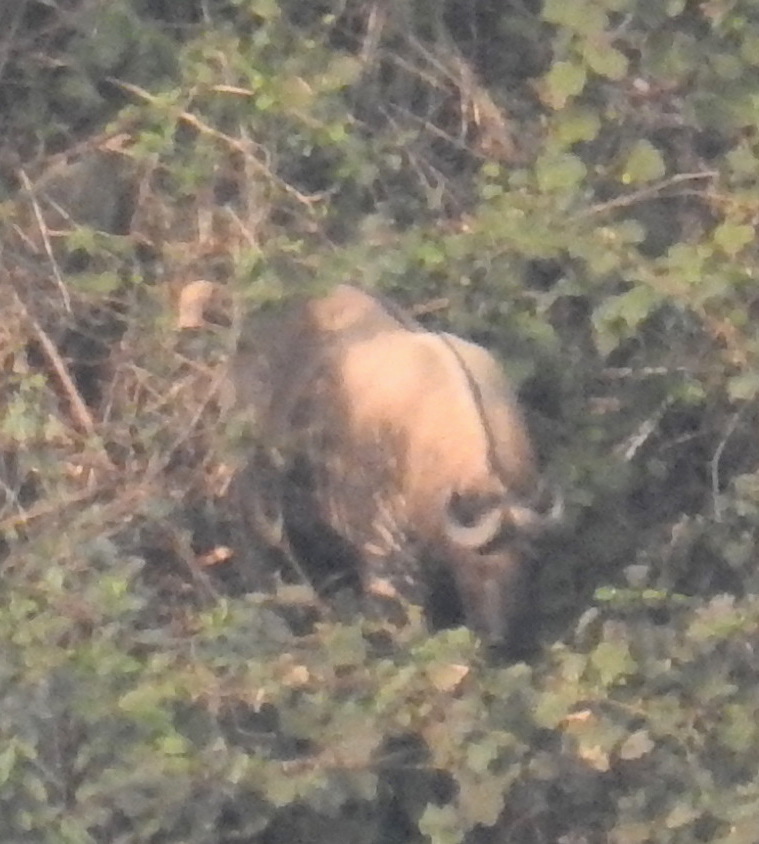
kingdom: Animalia
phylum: Chordata
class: Mammalia
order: Artiodactyla
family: Bovidae
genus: Budorcas
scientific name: Budorcas taxicolor
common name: Takin
